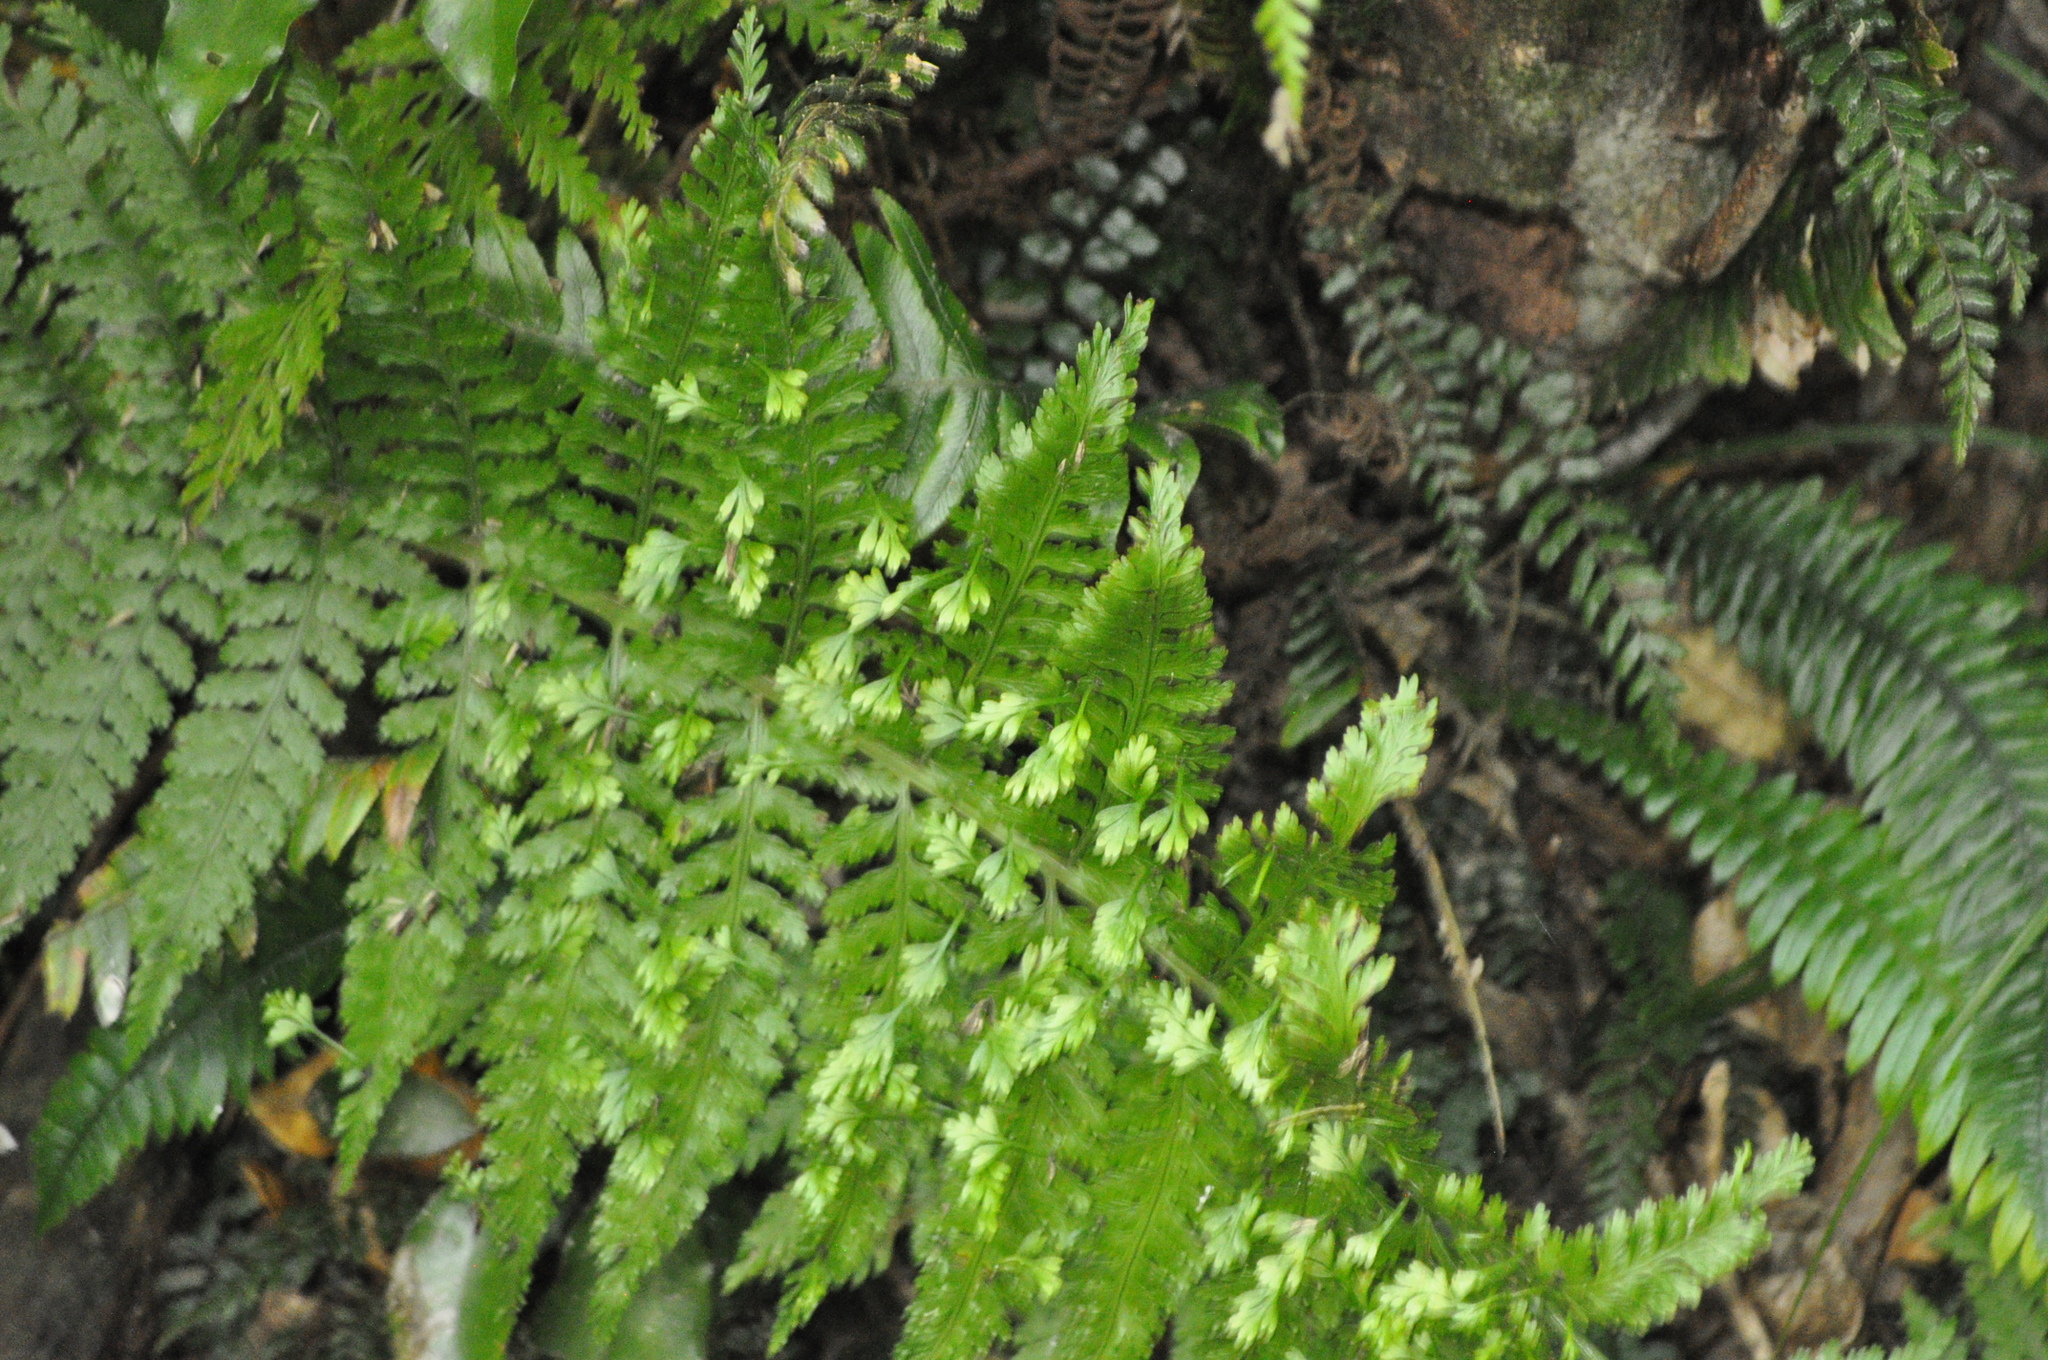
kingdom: Plantae
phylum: Tracheophyta
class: Polypodiopsida
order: Polypodiales
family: Aspleniaceae
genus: Asplenium
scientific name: Asplenium bulbiferum
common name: Mother fern
